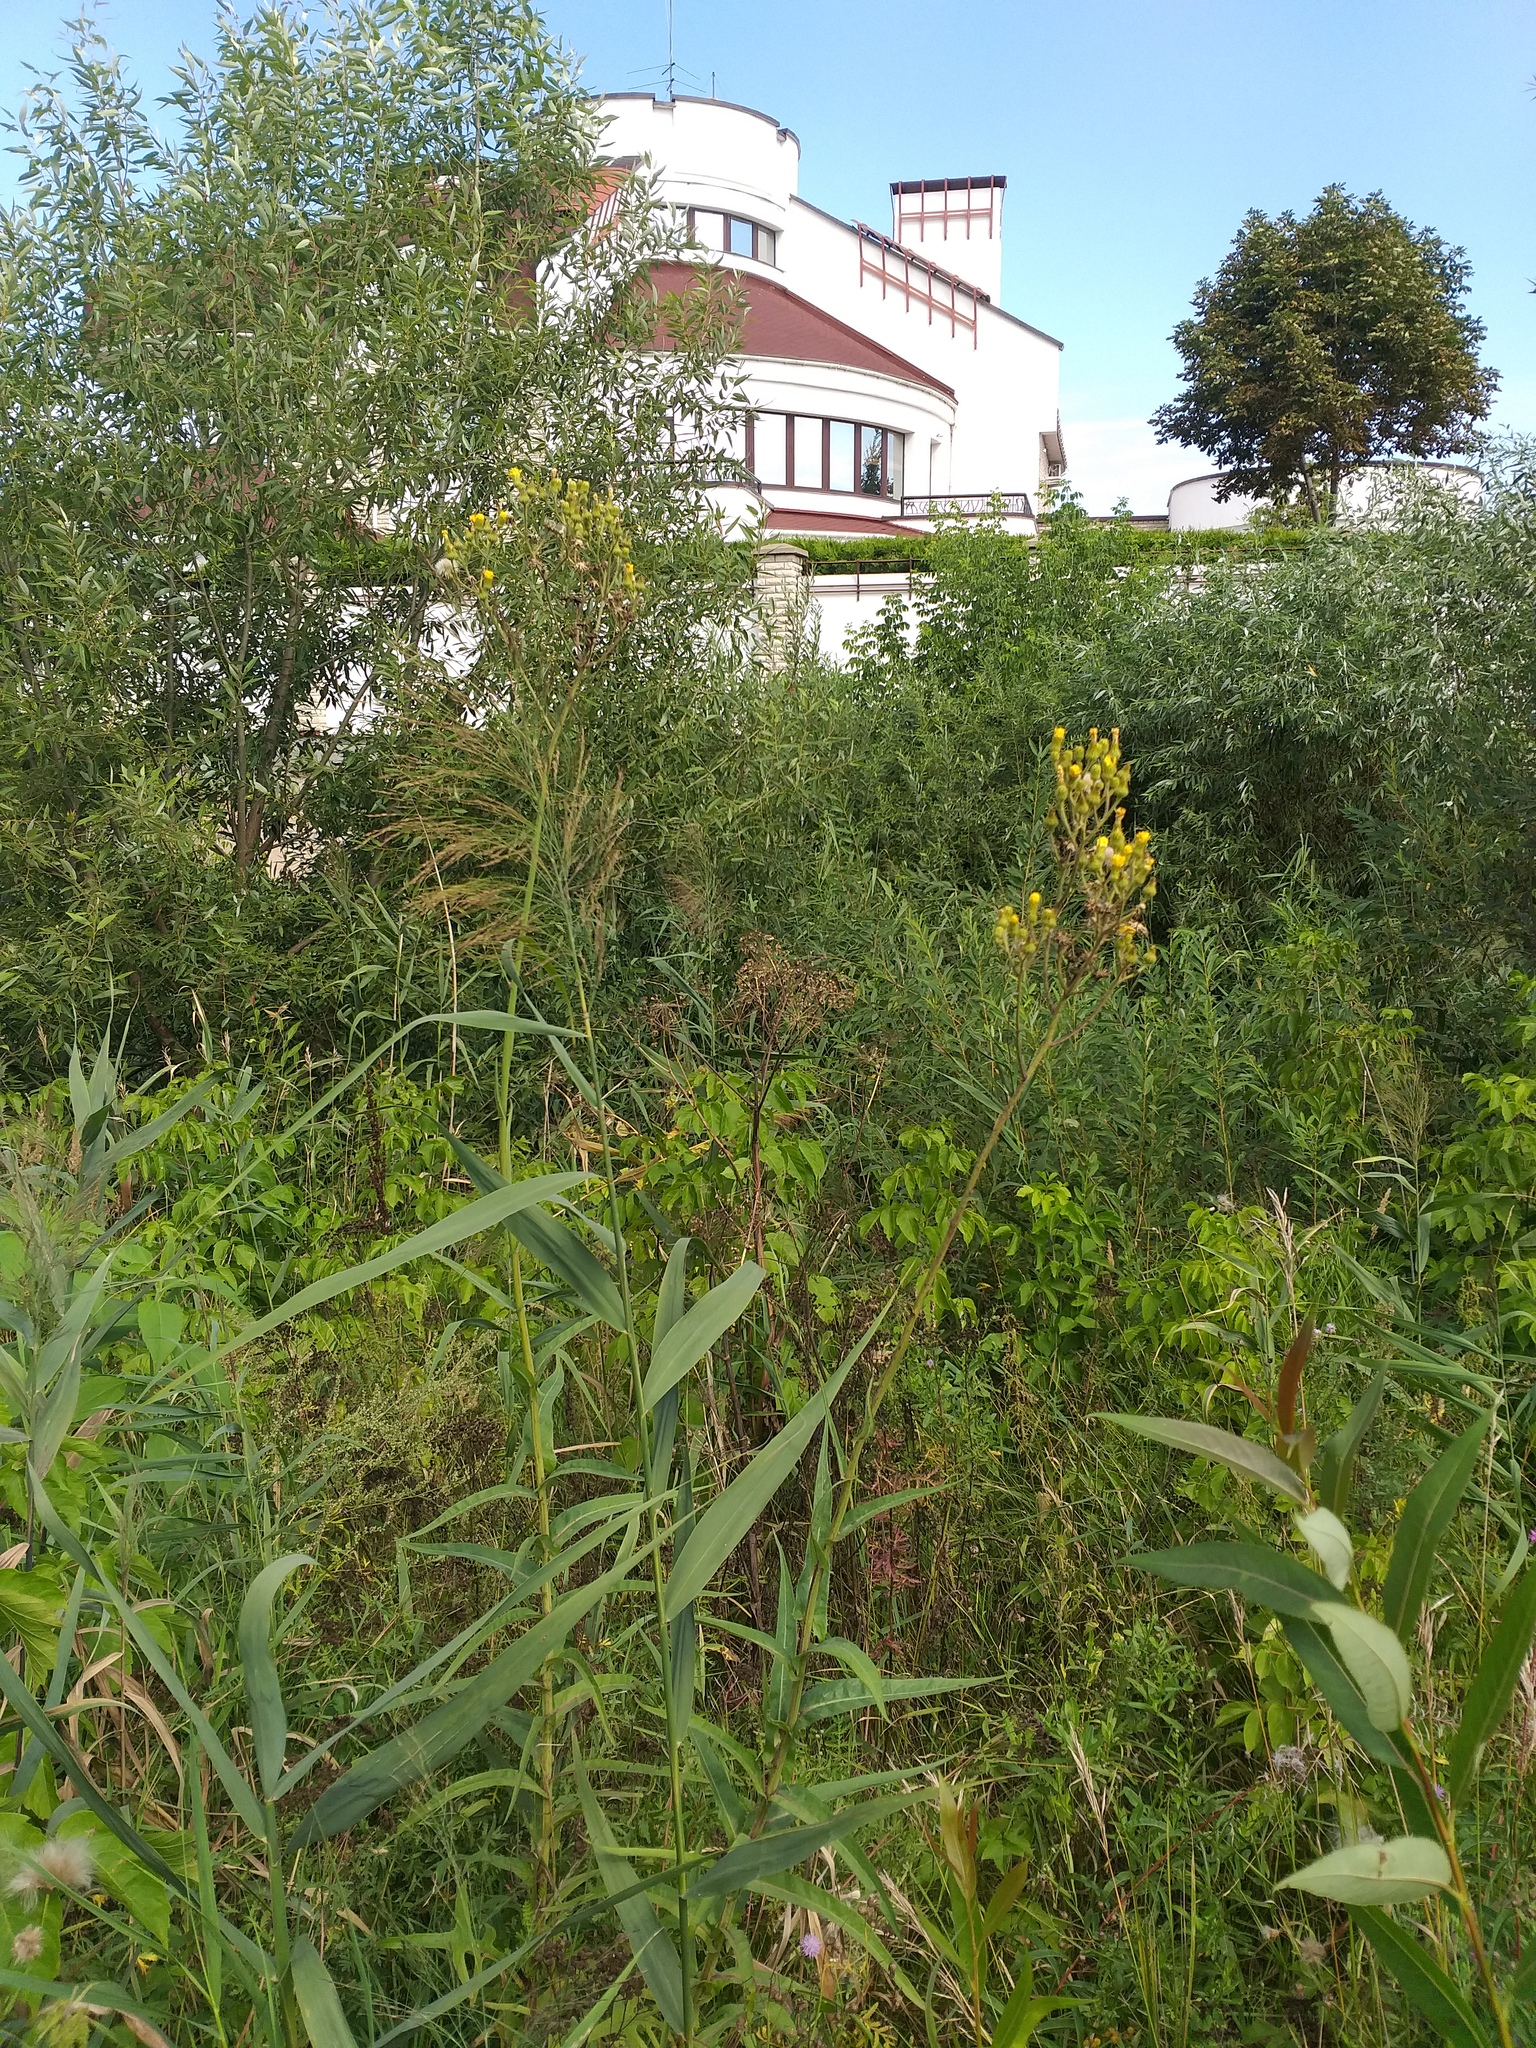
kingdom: Plantae
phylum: Tracheophyta
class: Magnoliopsida
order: Asterales
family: Asteraceae
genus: Sonchus
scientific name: Sonchus palustris
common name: Marsh sow-thistle
